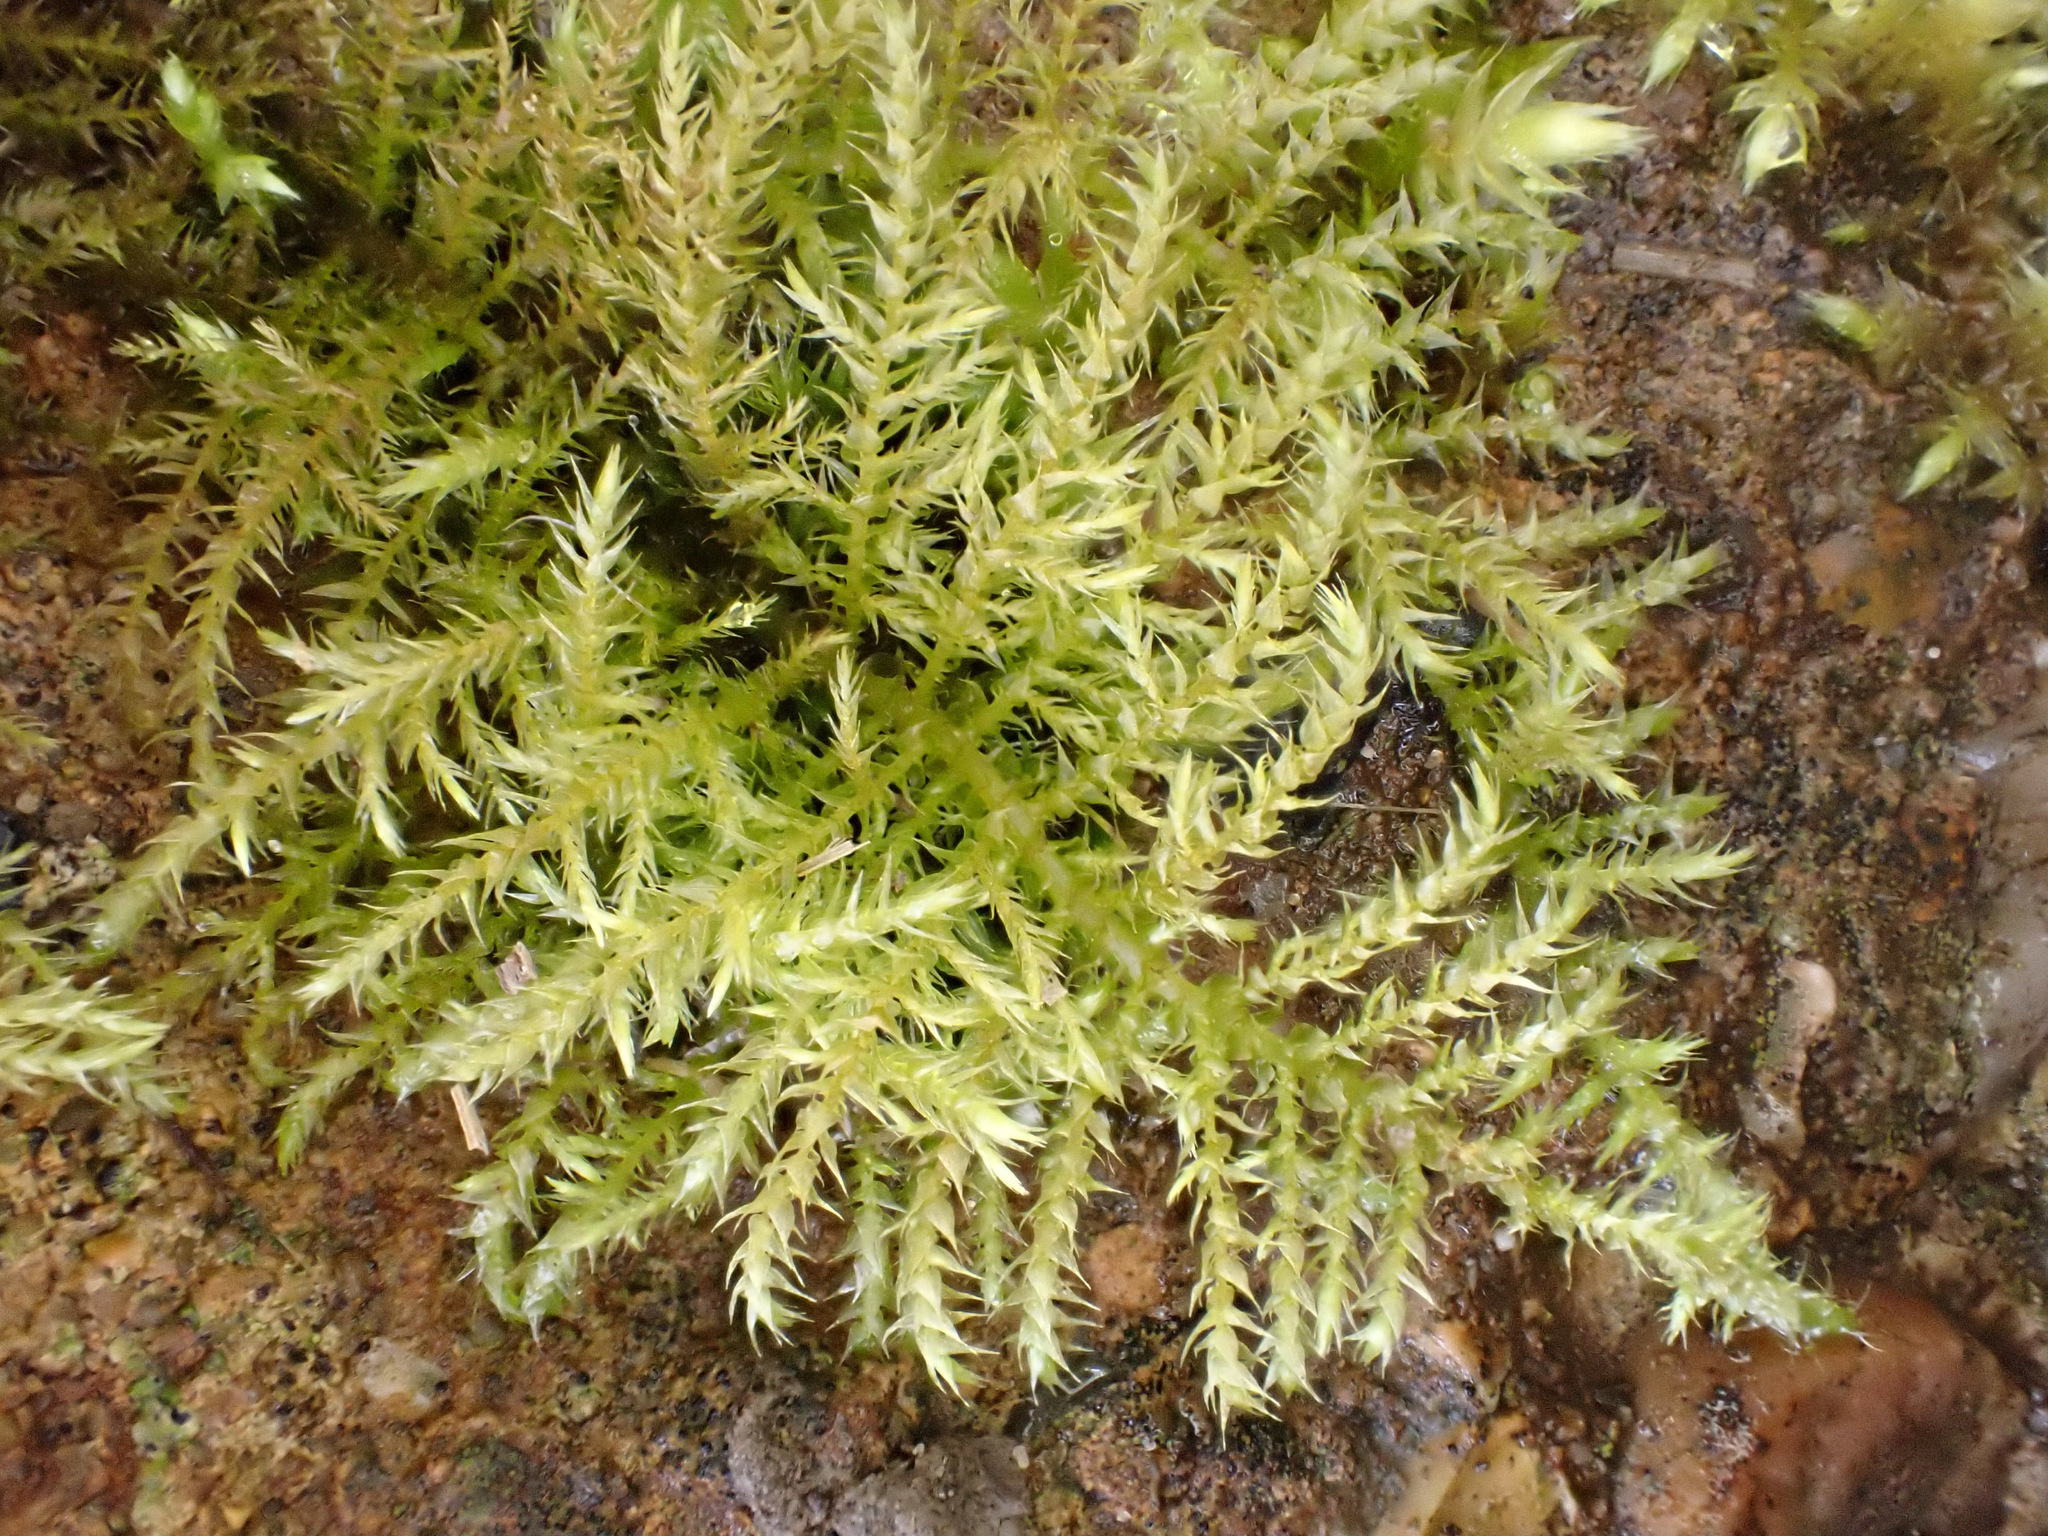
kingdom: Plantae
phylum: Bryophyta
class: Bryopsida
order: Hypnales
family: Brachytheciaceae
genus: Kindbergia
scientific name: Kindbergia praelonga
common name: Slender beaked moss
